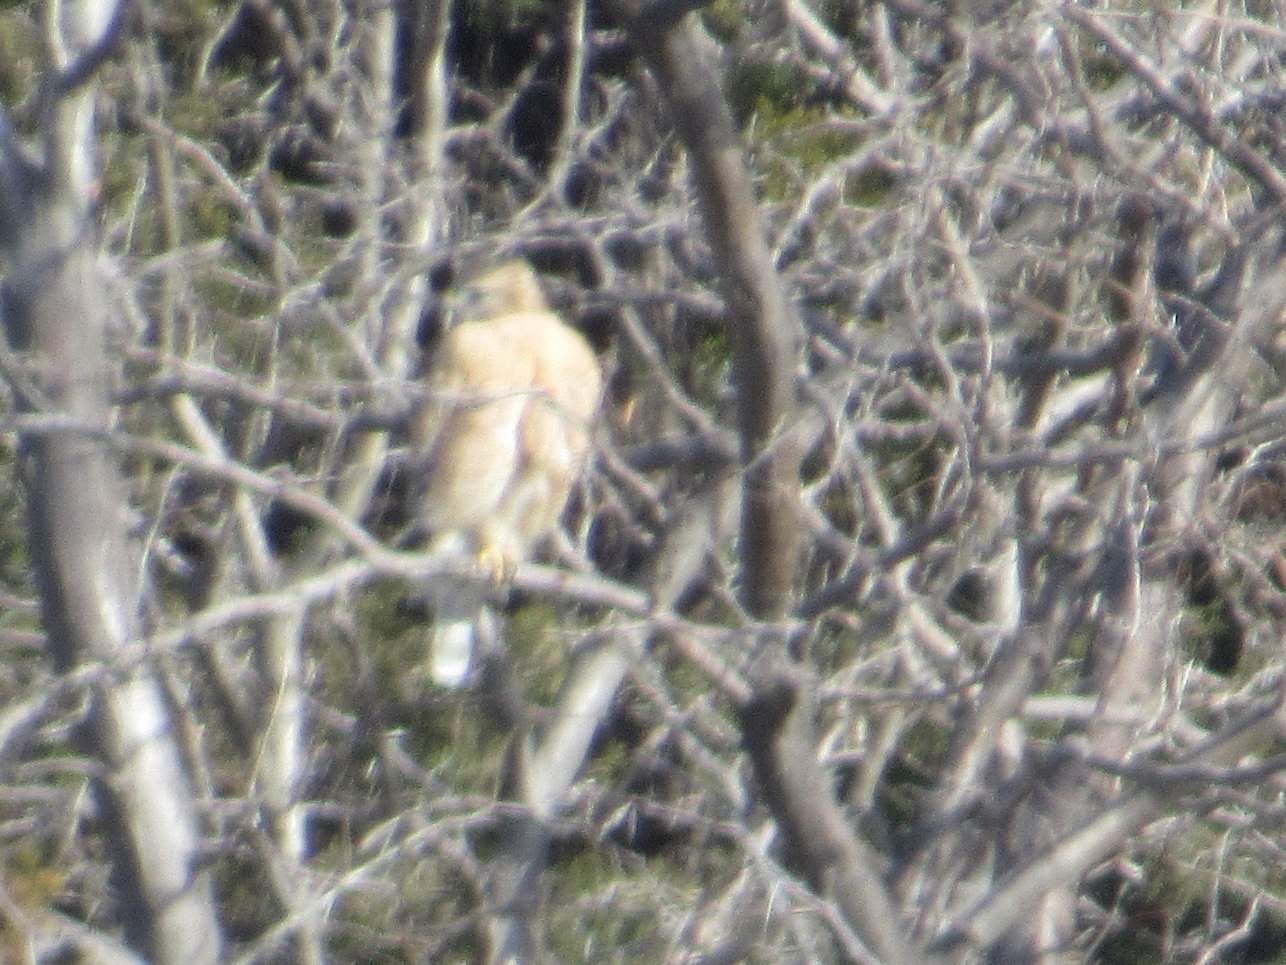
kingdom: Animalia
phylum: Chordata
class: Aves
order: Accipitriformes
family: Accipitridae
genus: Buteo
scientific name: Buteo lineatus
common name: Red-shouldered hawk
